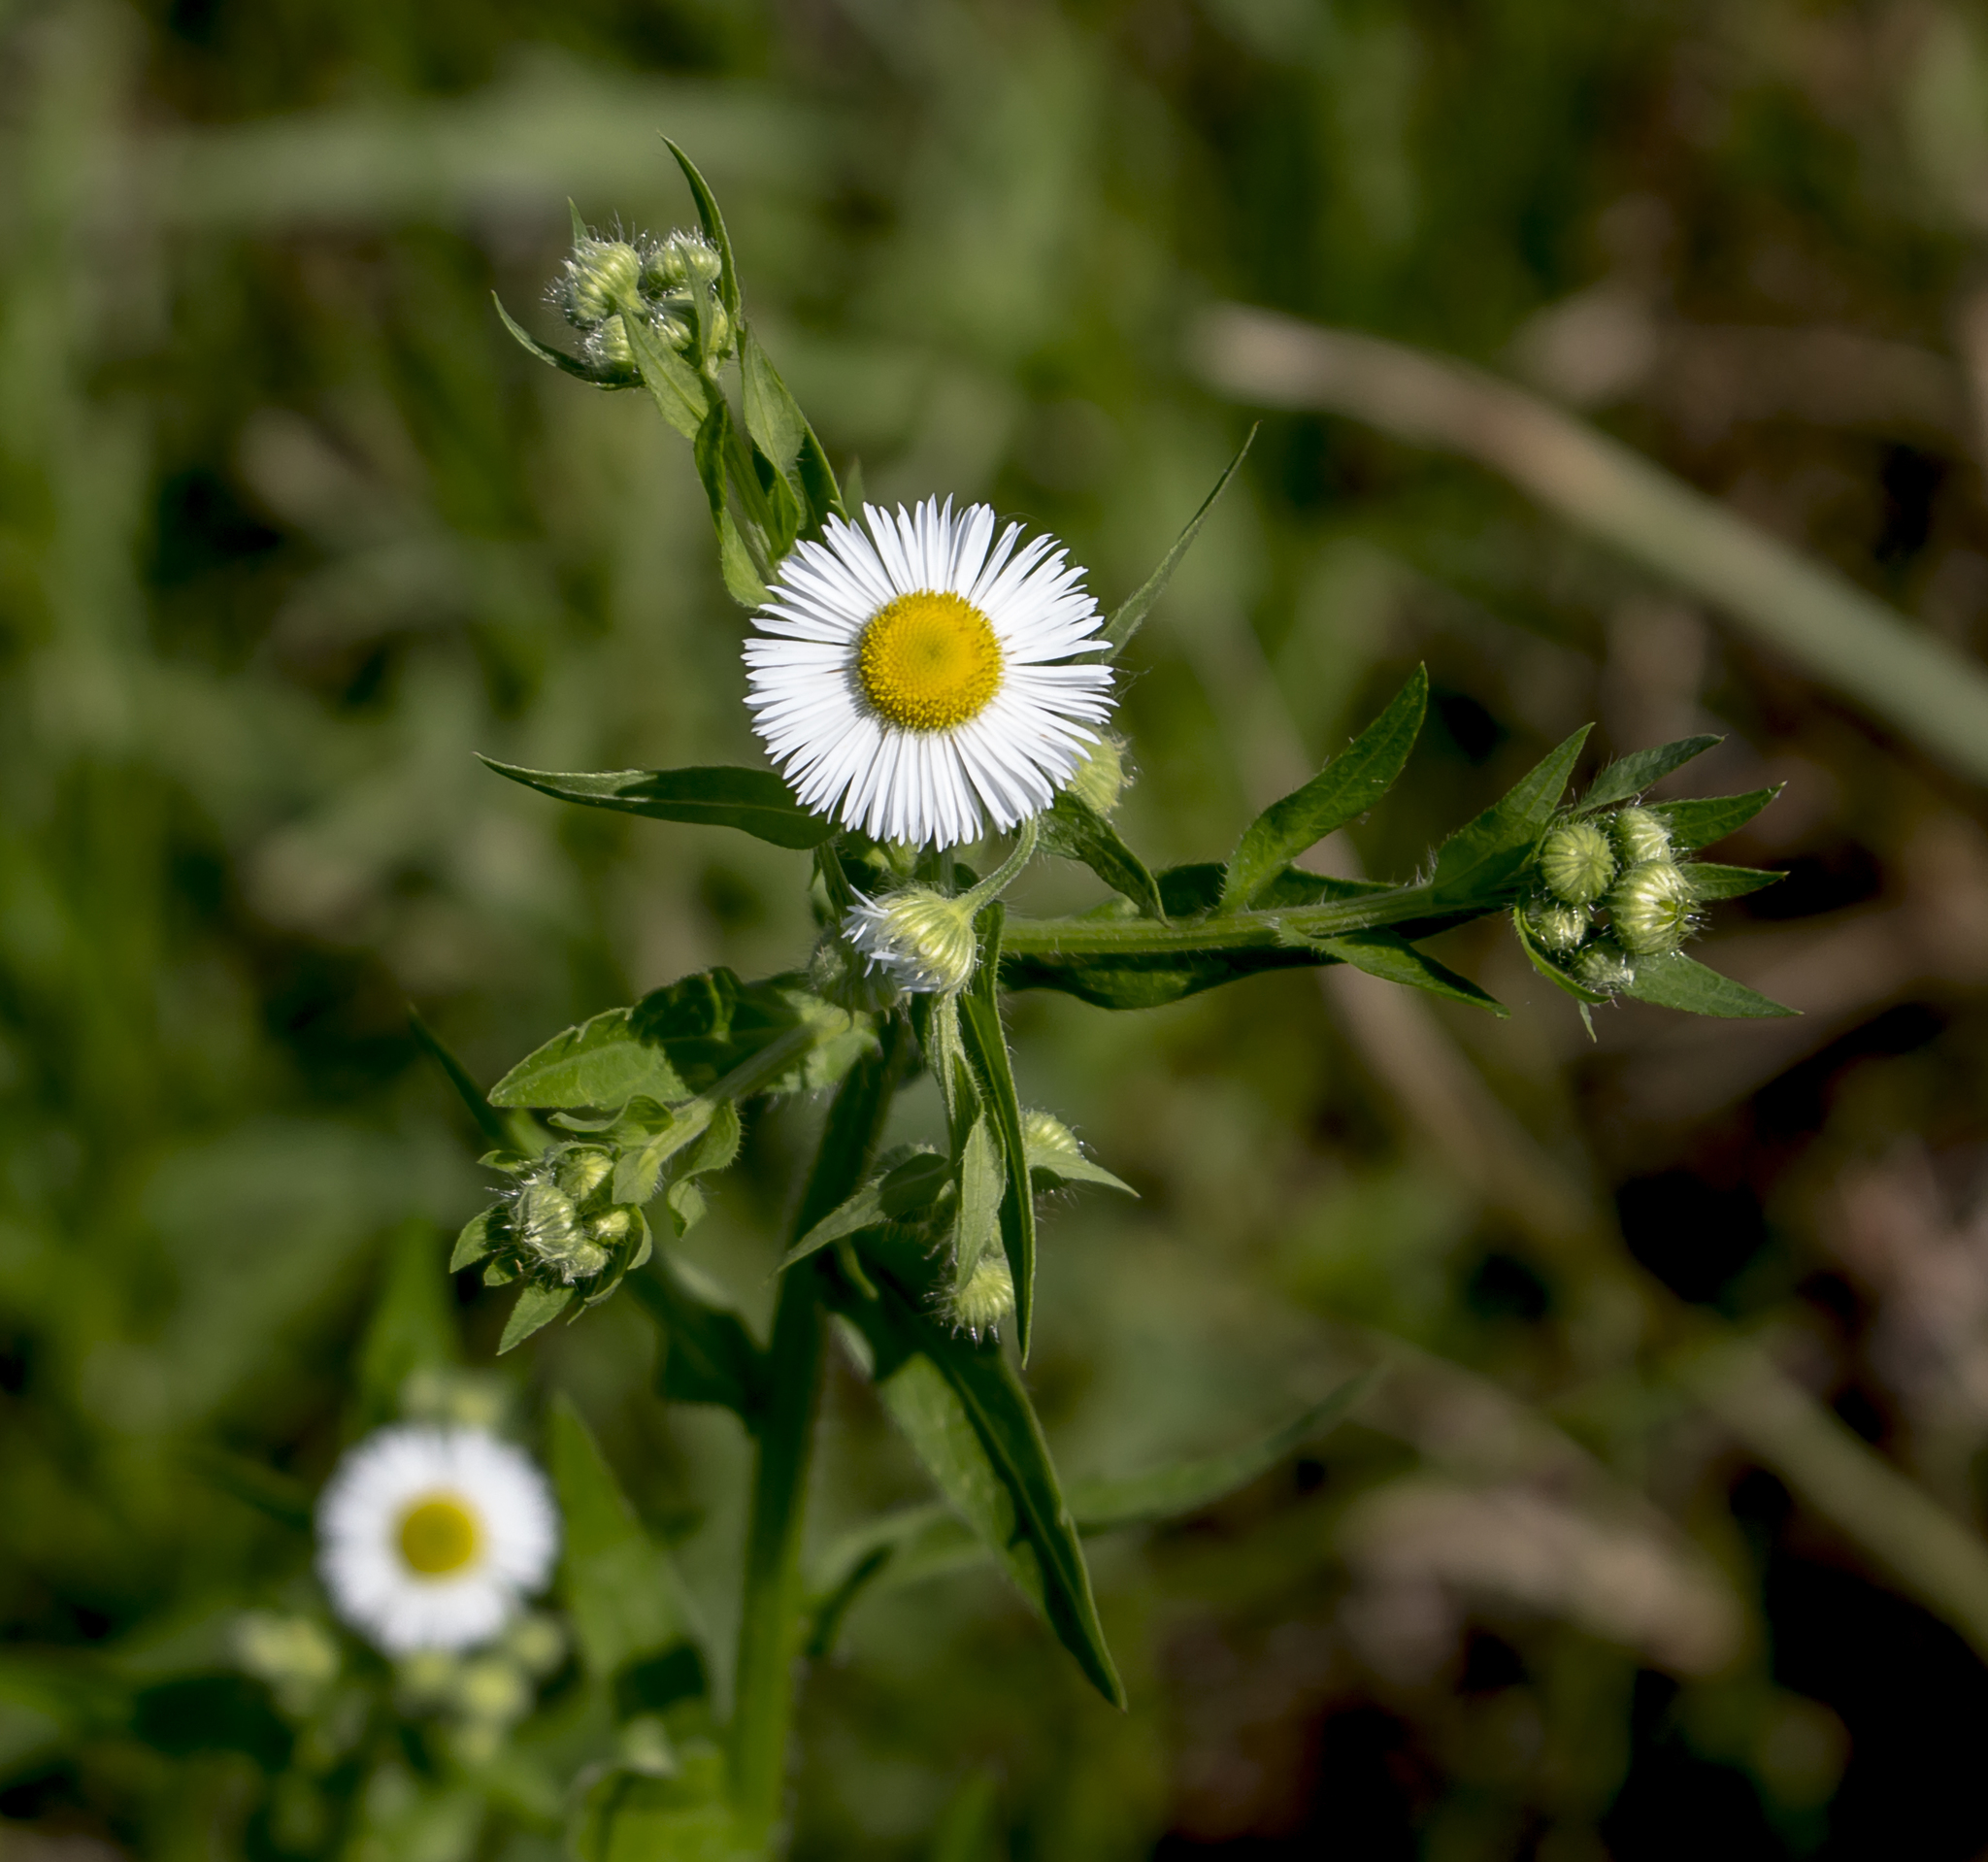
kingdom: Plantae
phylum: Tracheophyta
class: Magnoliopsida
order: Asterales
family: Asteraceae
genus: Erigeron
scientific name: Erigeron annuus
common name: Tall fleabane
